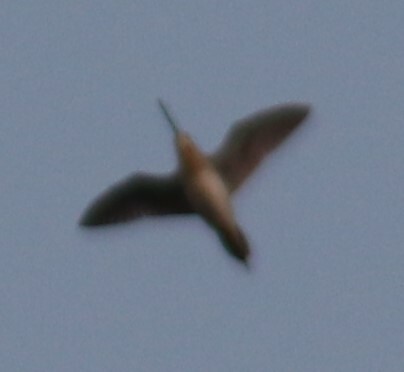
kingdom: Animalia
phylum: Chordata
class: Aves
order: Charadriiformes
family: Scolopacidae
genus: Gallinago
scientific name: Gallinago delicata
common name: Wilson's snipe
